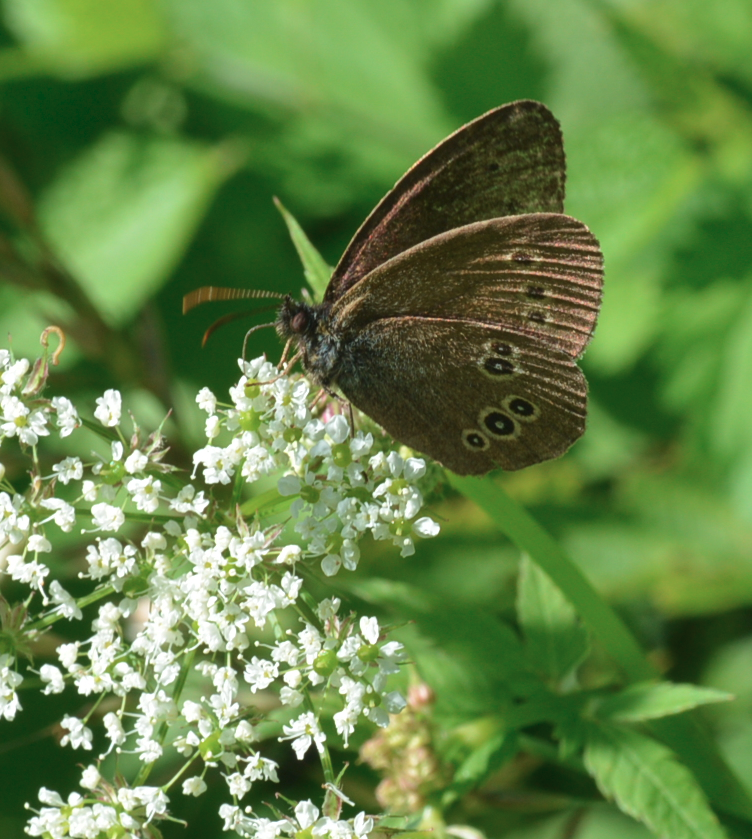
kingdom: Animalia
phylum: Arthropoda
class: Insecta
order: Lepidoptera
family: Nymphalidae
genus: Aphantopus
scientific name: Aphantopus hyperantus
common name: Ringlet
